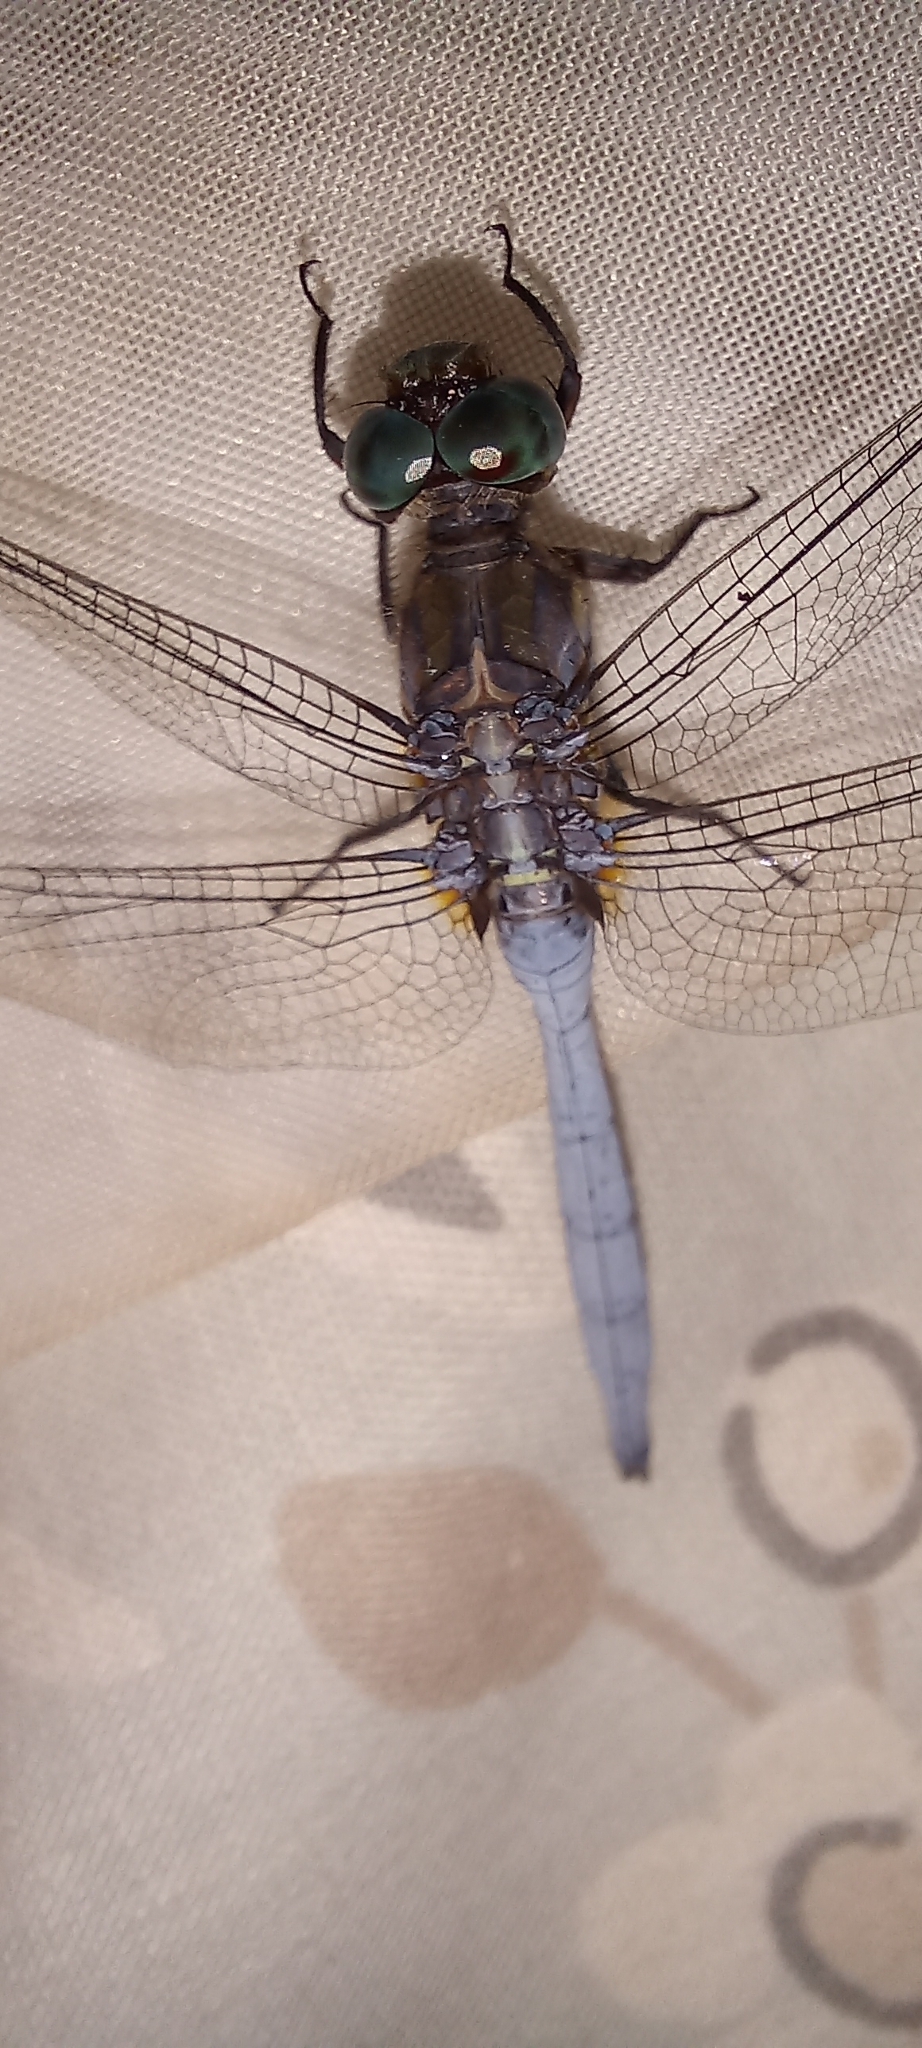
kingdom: Animalia
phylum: Arthropoda
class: Insecta
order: Odonata
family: Libellulidae
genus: Orthetrum
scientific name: Orthetrum julia
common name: Julia skimmer
